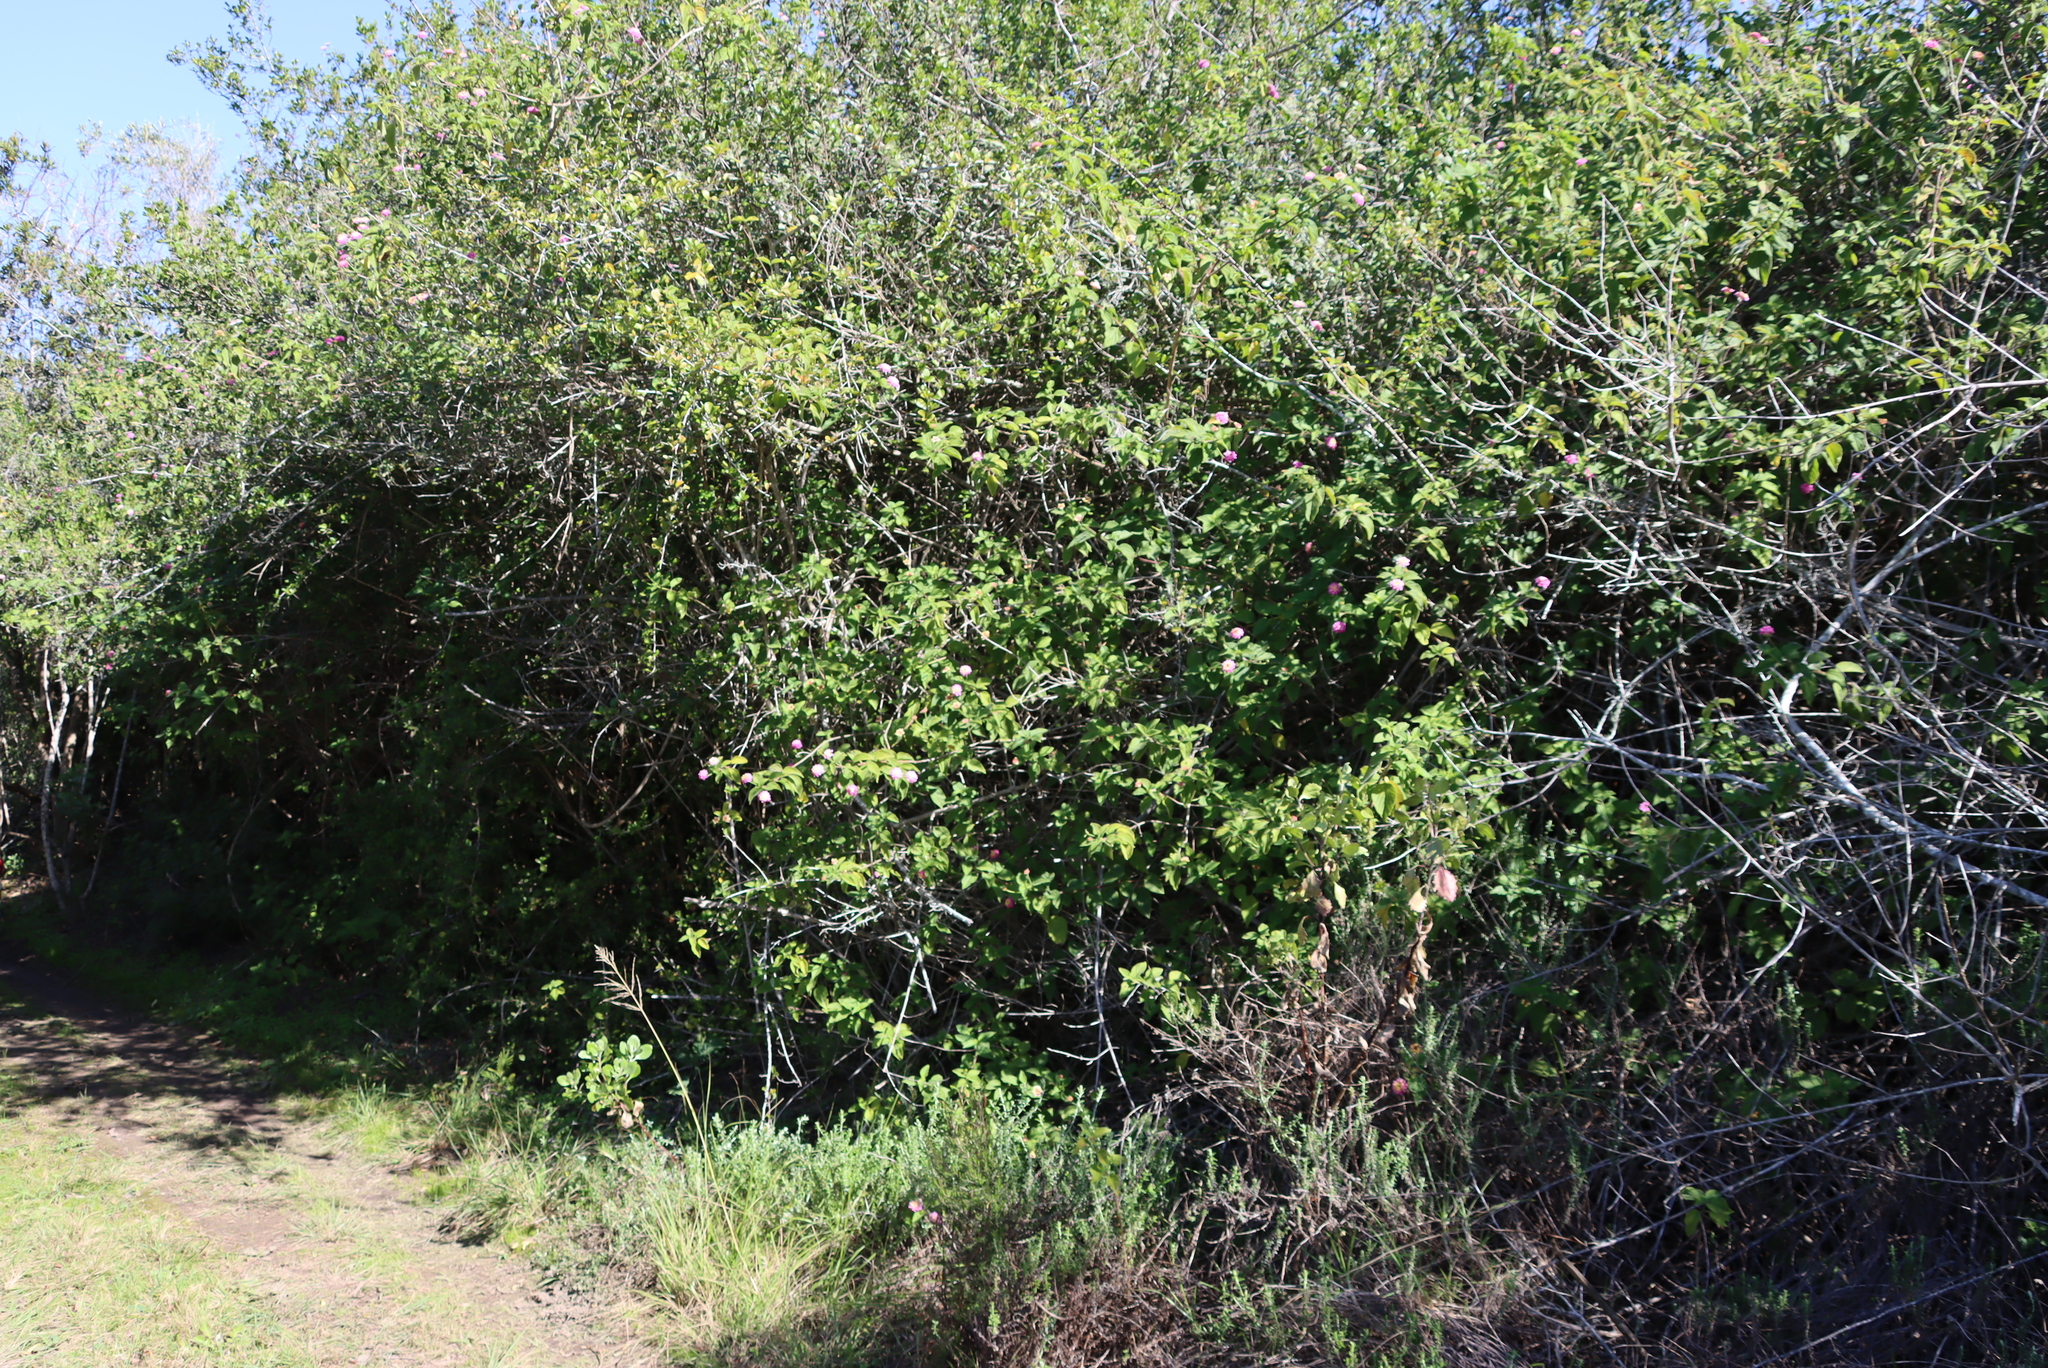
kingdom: Plantae
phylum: Tracheophyta
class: Magnoliopsida
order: Lamiales
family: Verbenaceae
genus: Lantana
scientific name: Lantana camara
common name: Lantana
